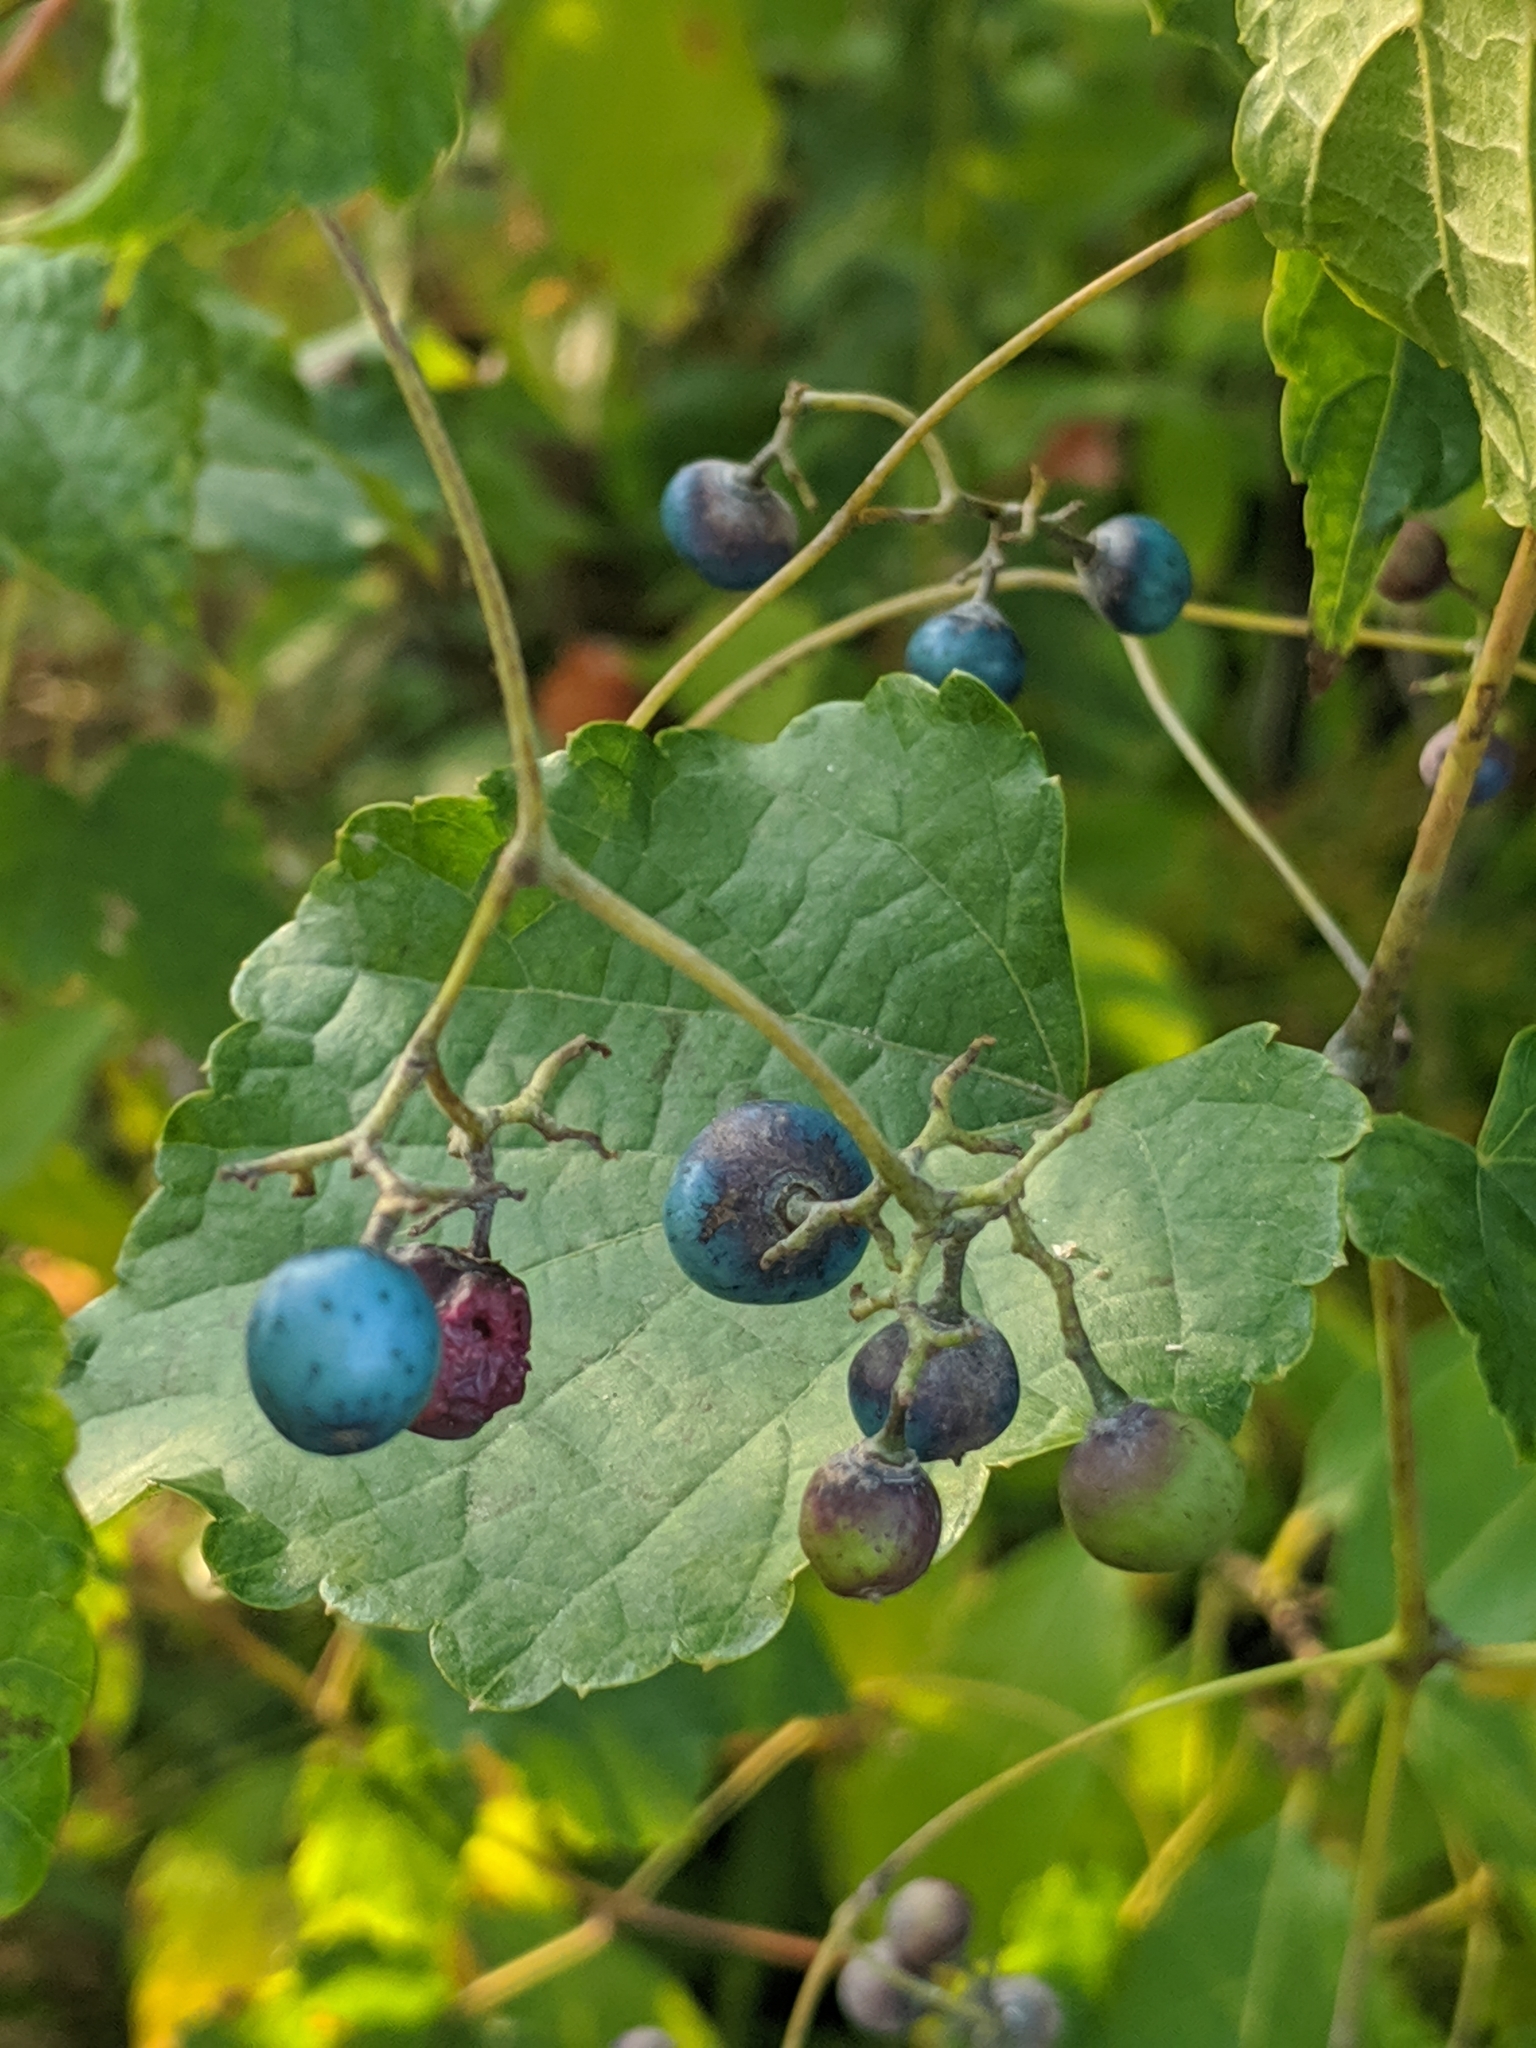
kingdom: Plantae
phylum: Tracheophyta
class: Magnoliopsida
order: Vitales
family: Vitaceae
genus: Ampelopsis
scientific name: Ampelopsis glandulosa
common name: Amur peppervine
